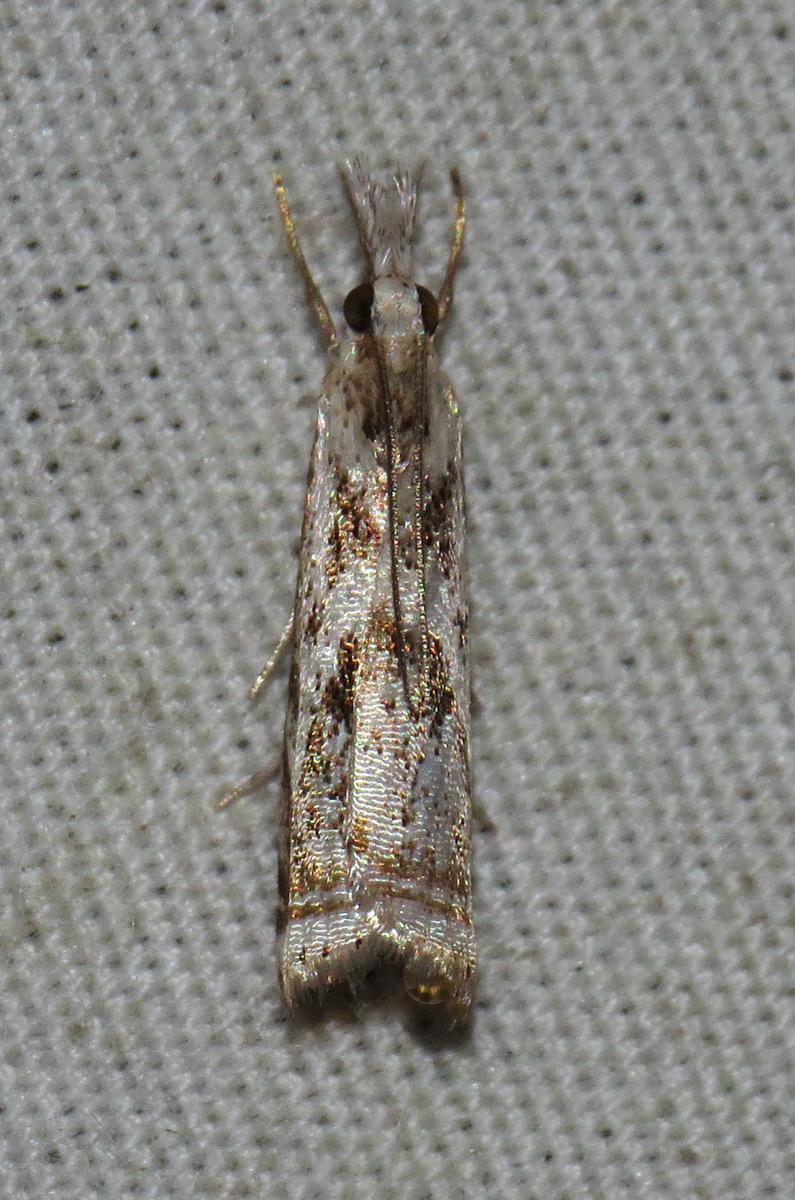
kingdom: Animalia
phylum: Arthropoda
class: Insecta
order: Lepidoptera
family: Crambidae
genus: Microcrambus
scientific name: Microcrambus elegans
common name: Elegant grass-veneer
